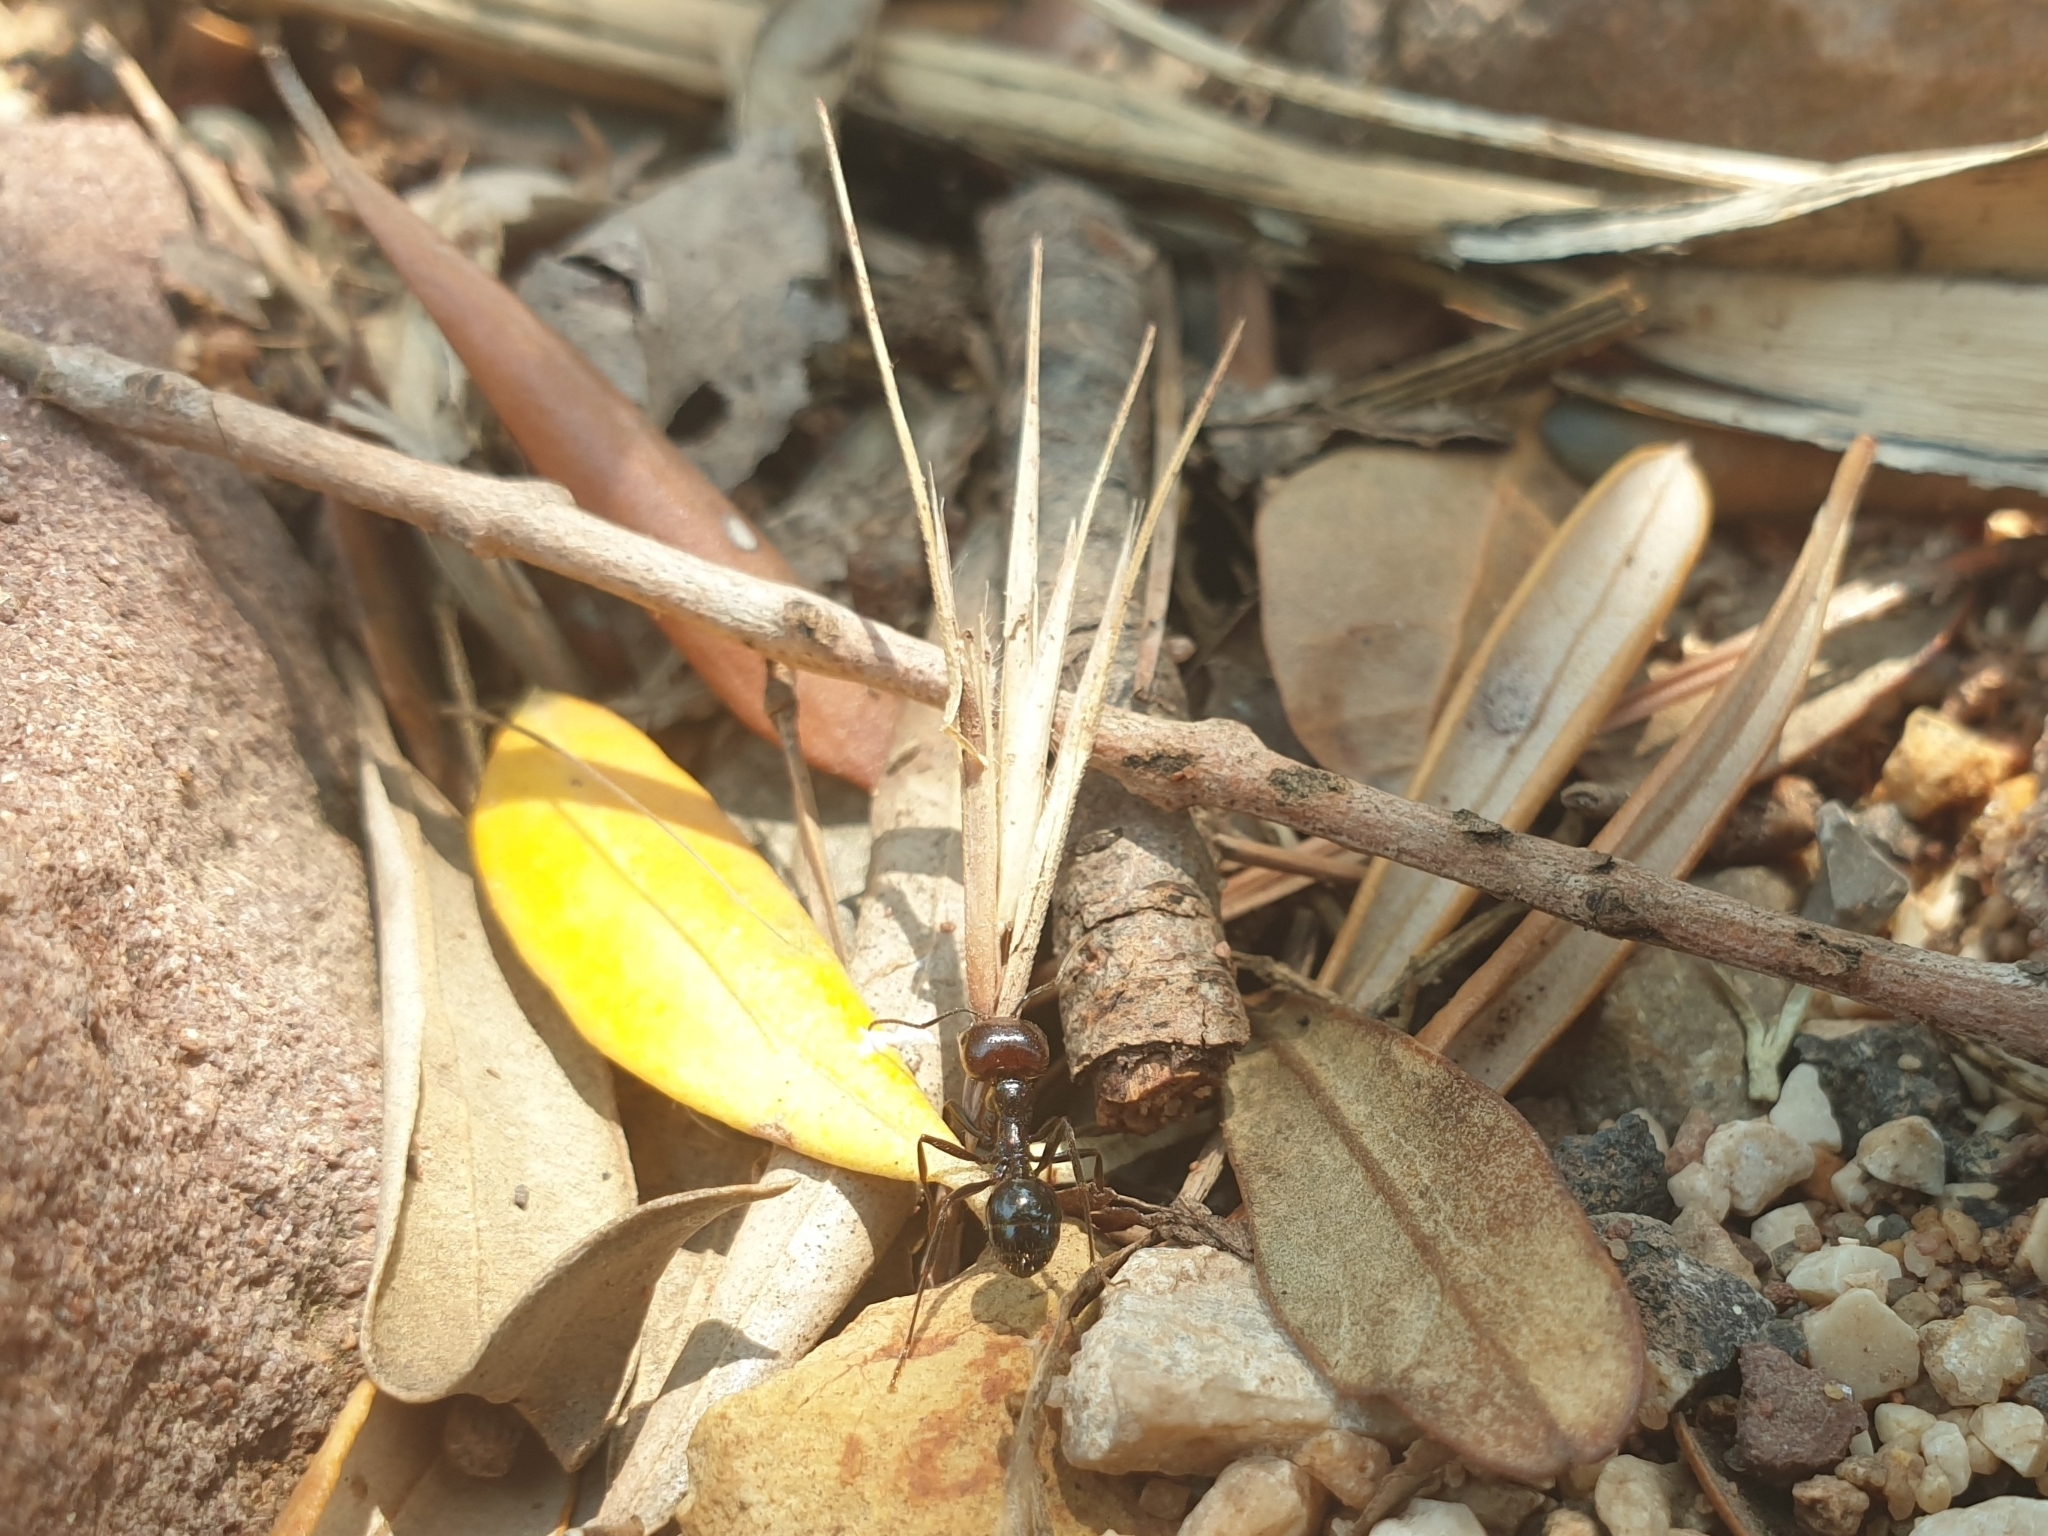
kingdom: Animalia
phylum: Arthropoda
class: Insecta
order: Hymenoptera
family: Formicidae
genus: Messor
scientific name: Messor barbarus
